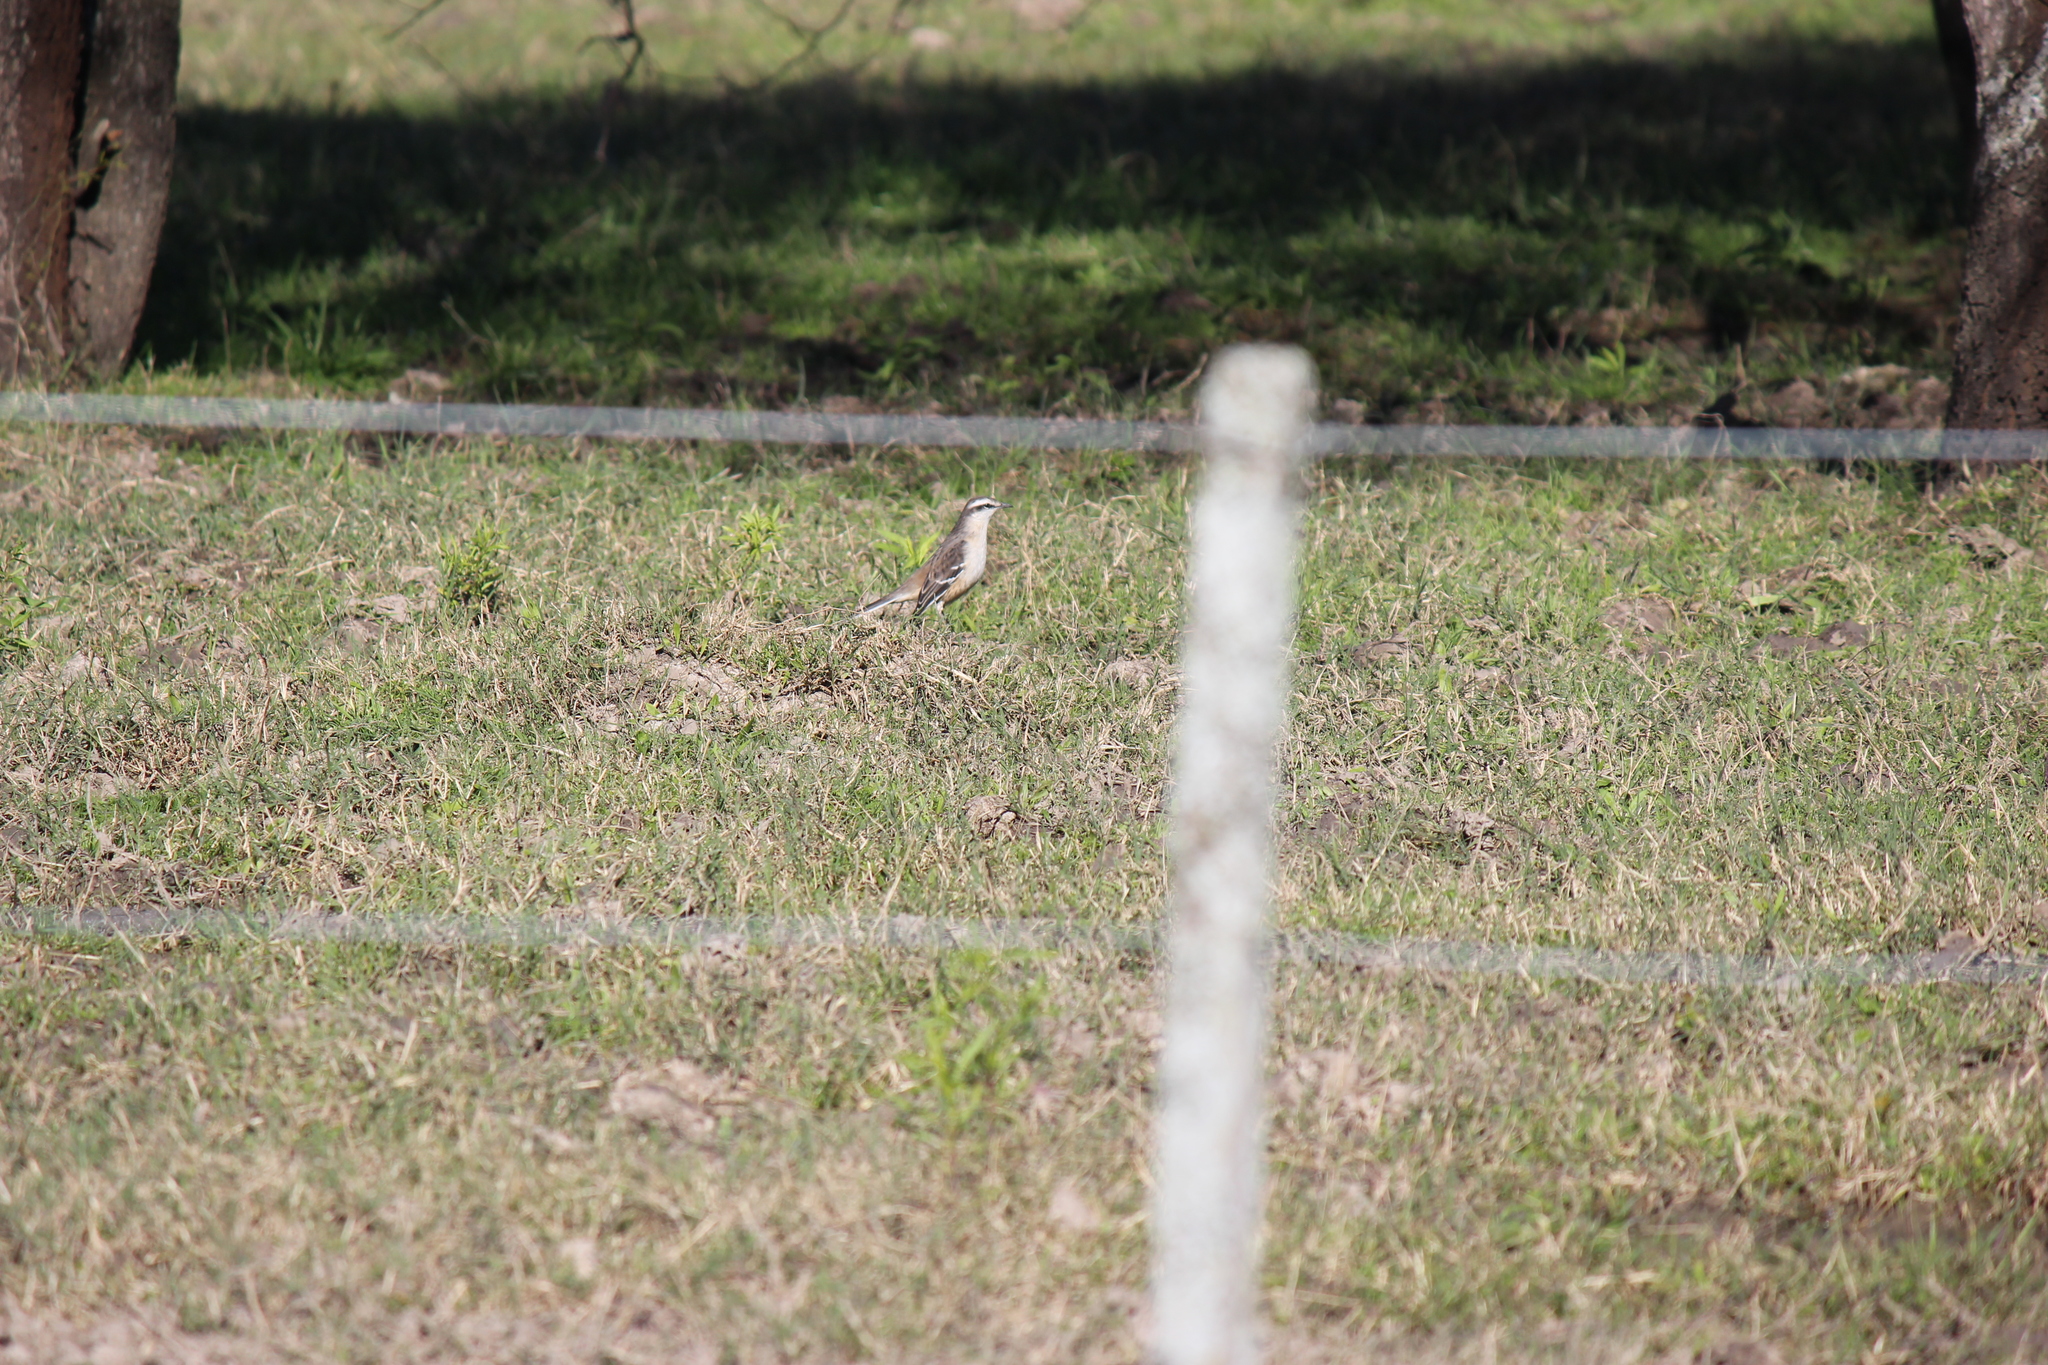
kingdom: Animalia
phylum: Chordata
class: Aves
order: Passeriformes
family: Mimidae
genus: Mimus
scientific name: Mimus saturninus
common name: Chalk-browed mockingbird
